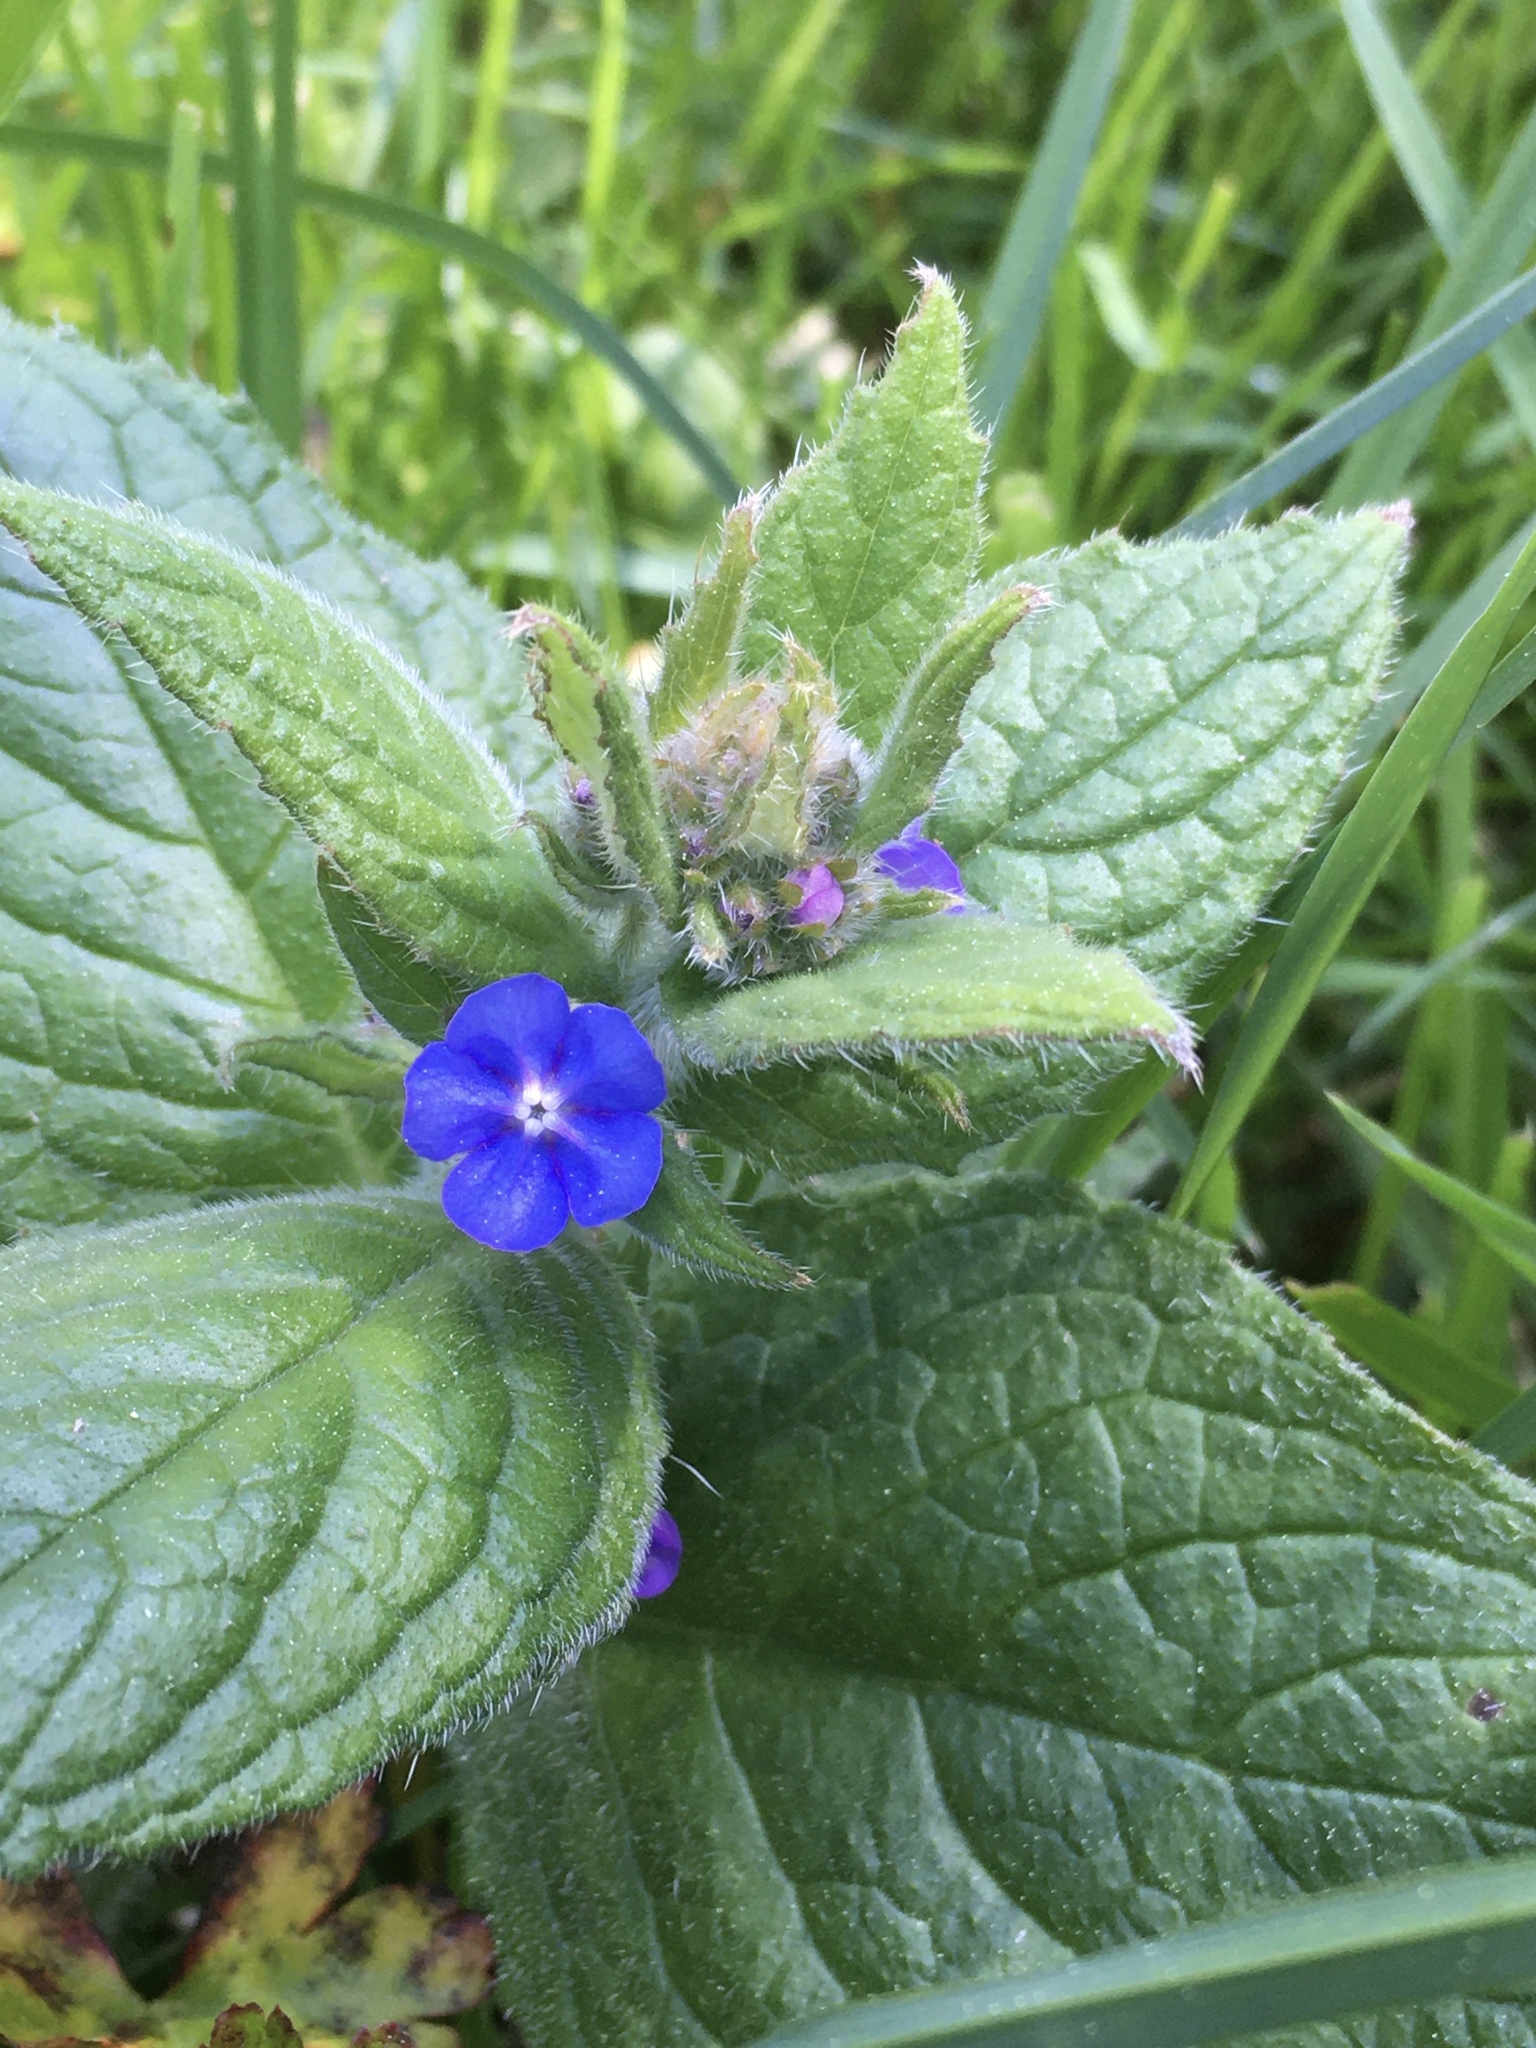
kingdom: Plantae
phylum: Tracheophyta
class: Magnoliopsida
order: Boraginales
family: Boraginaceae
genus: Pentaglottis
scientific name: Pentaglottis sempervirens
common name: Green alkanet
